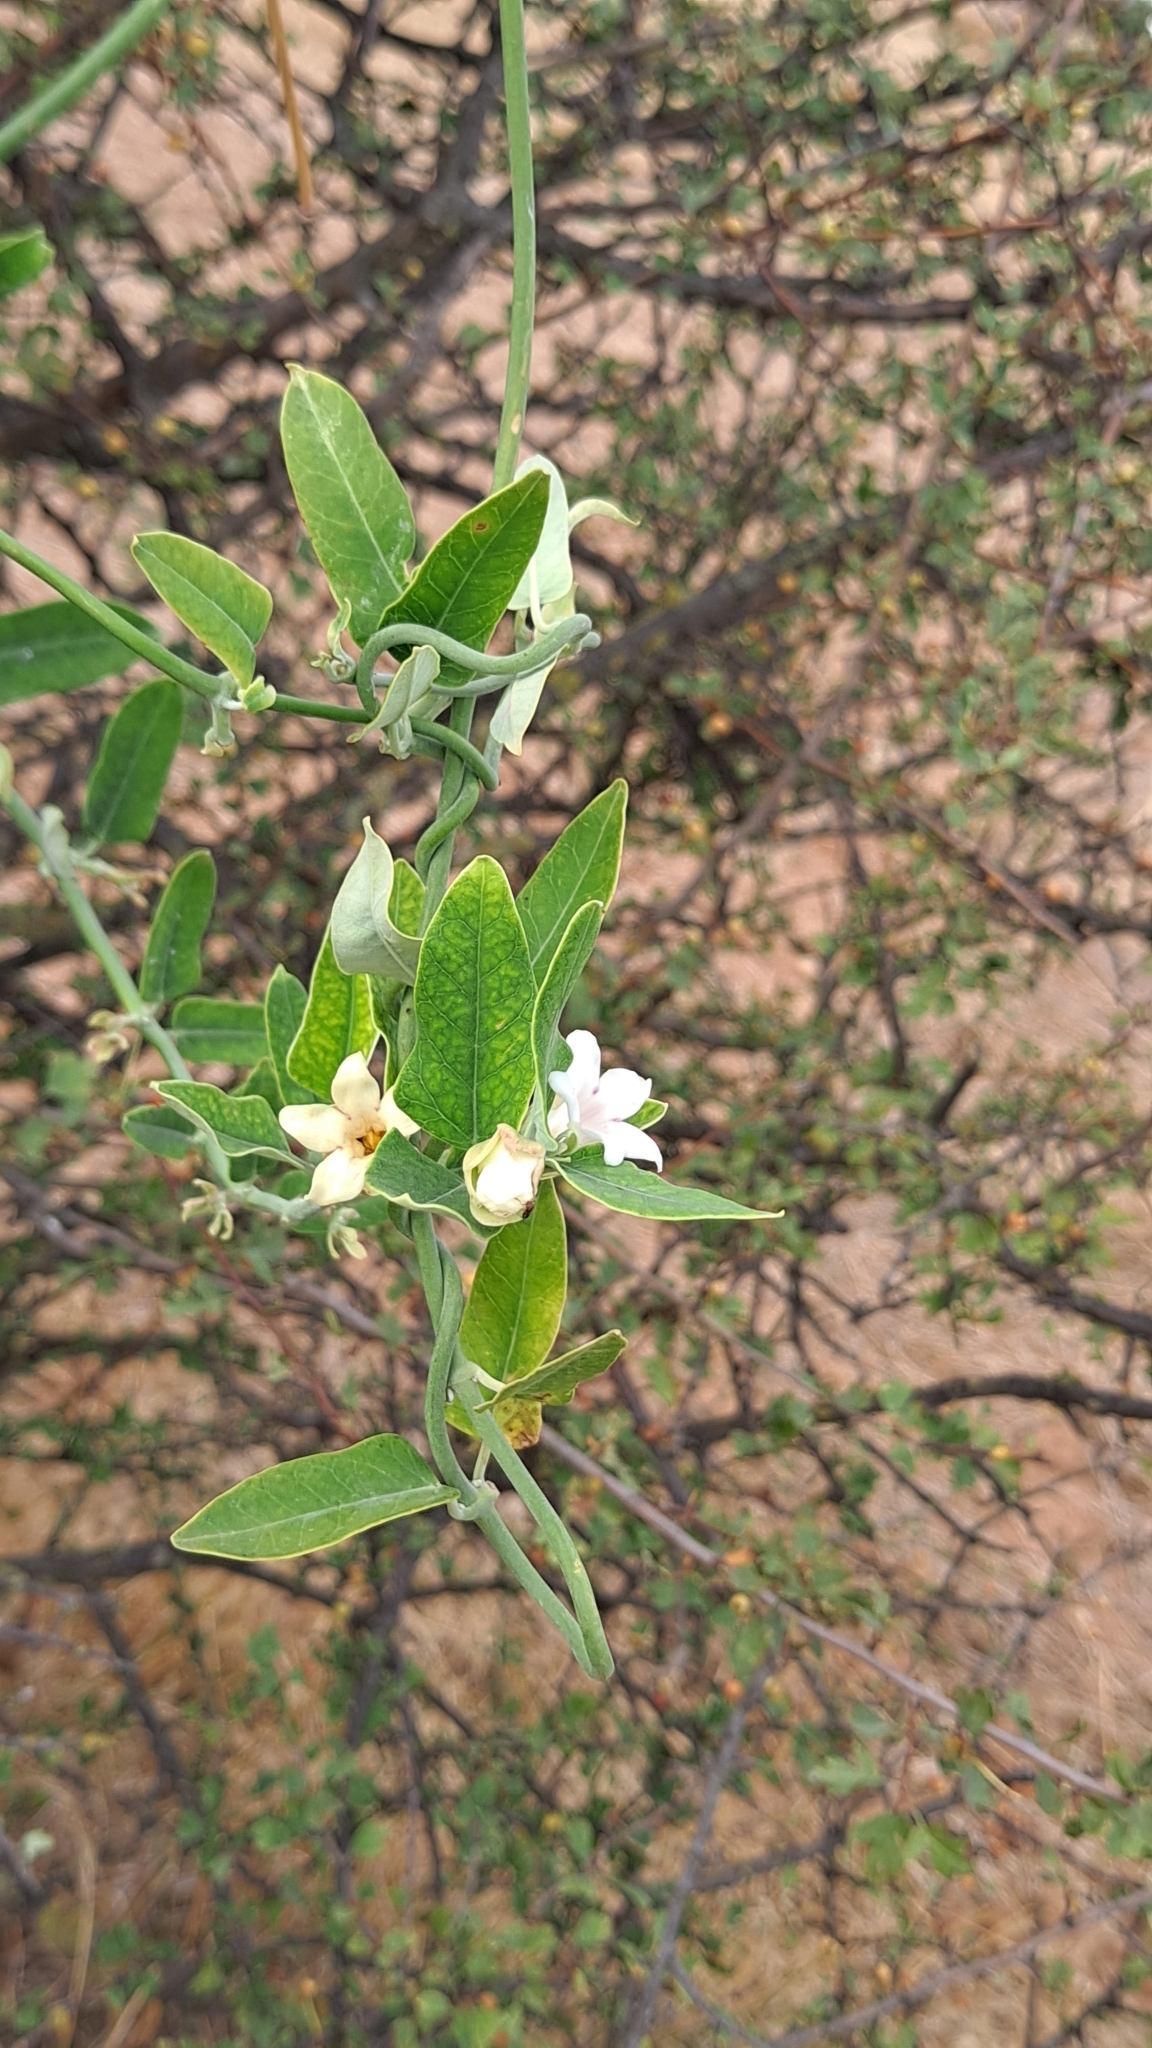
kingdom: Plantae
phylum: Tracheophyta
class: Magnoliopsida
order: Gentianales
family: Apocynaceae
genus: Araujia
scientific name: Araujia sericifera
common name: White bladderflower
